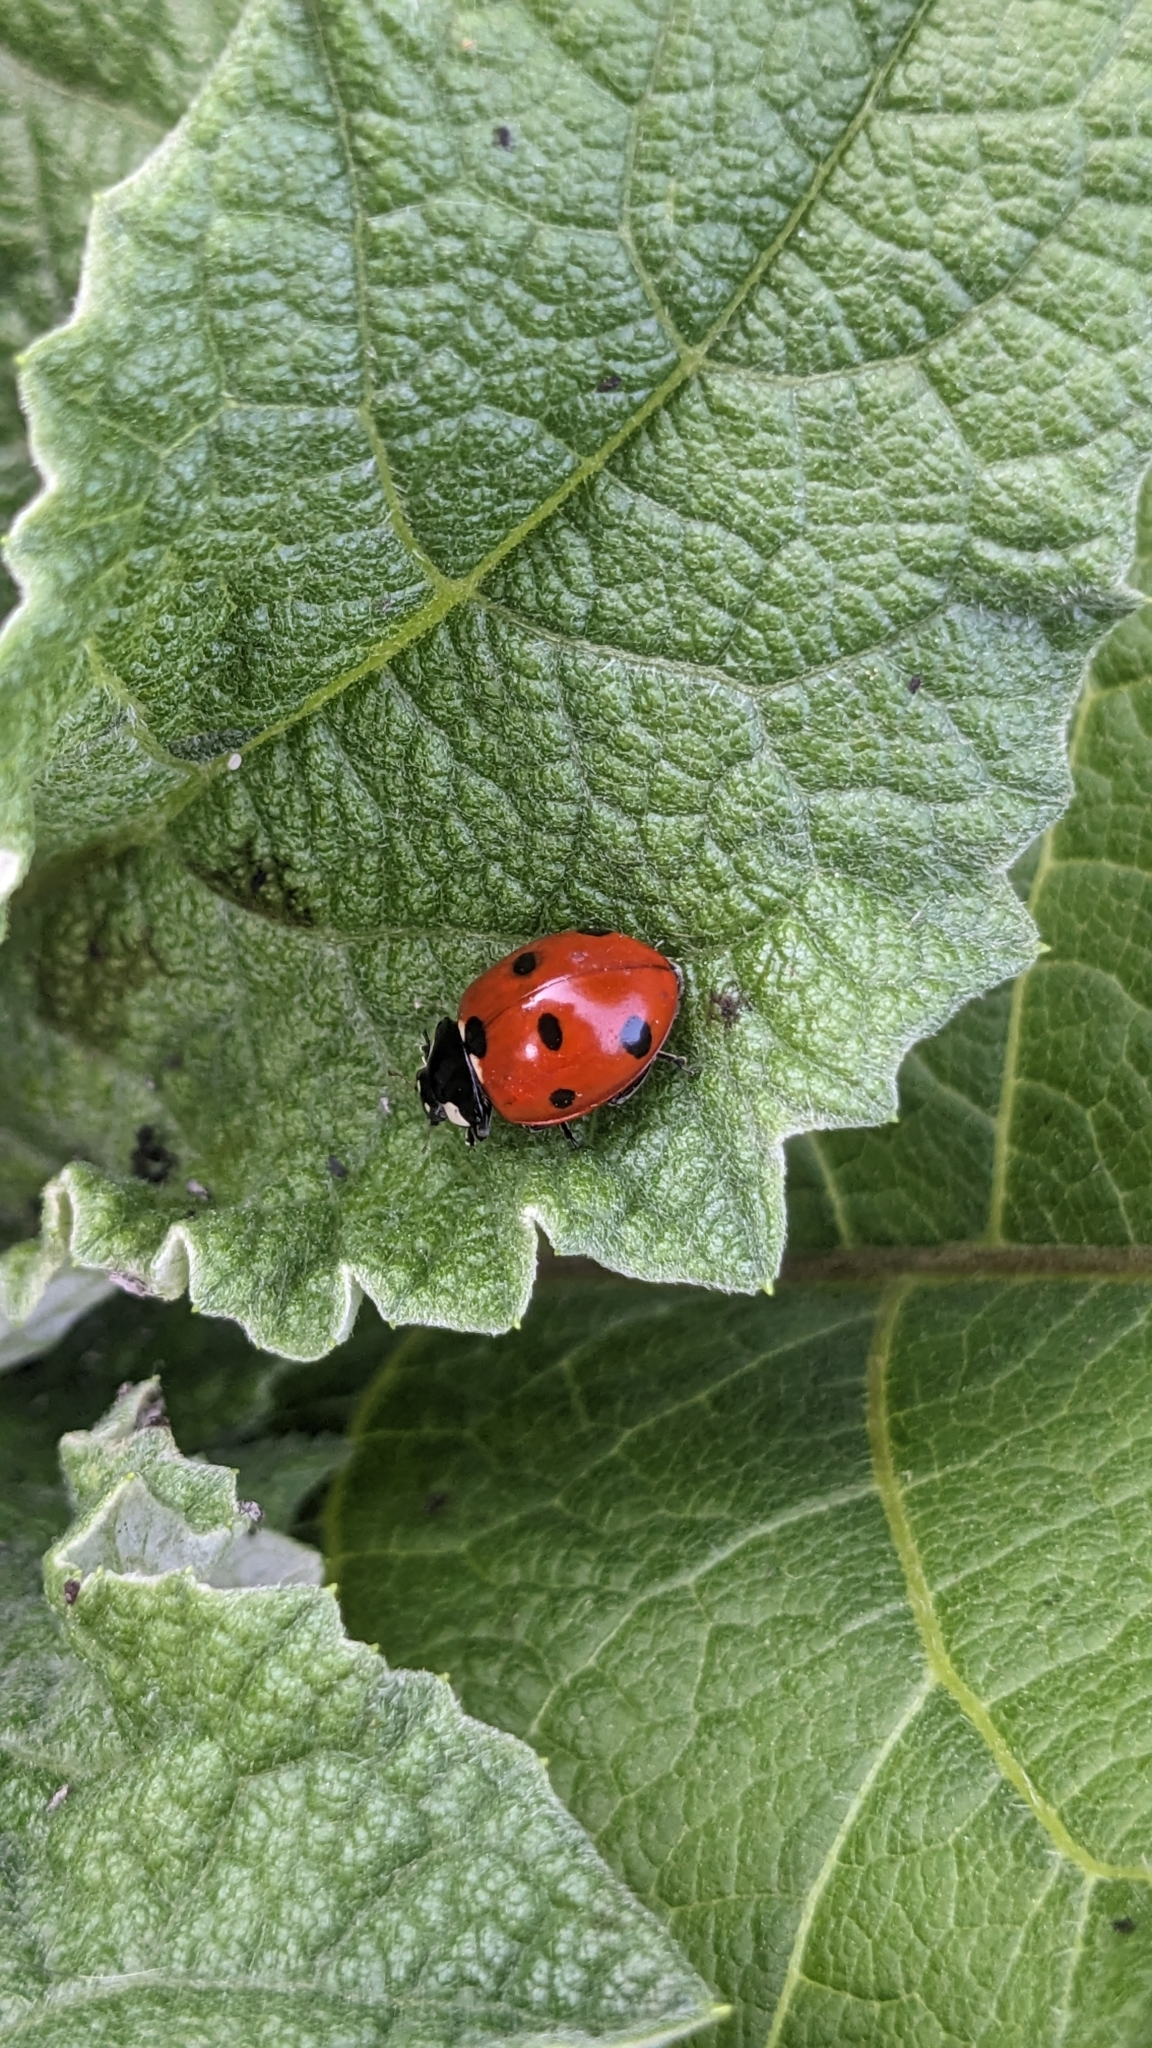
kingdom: Animalia
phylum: Arthropoda
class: Insecta
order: Coleoptera
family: Coccinellidae
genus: Coccinella
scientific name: Coccinella septempunctata
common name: Sevenspotted lady beetle
